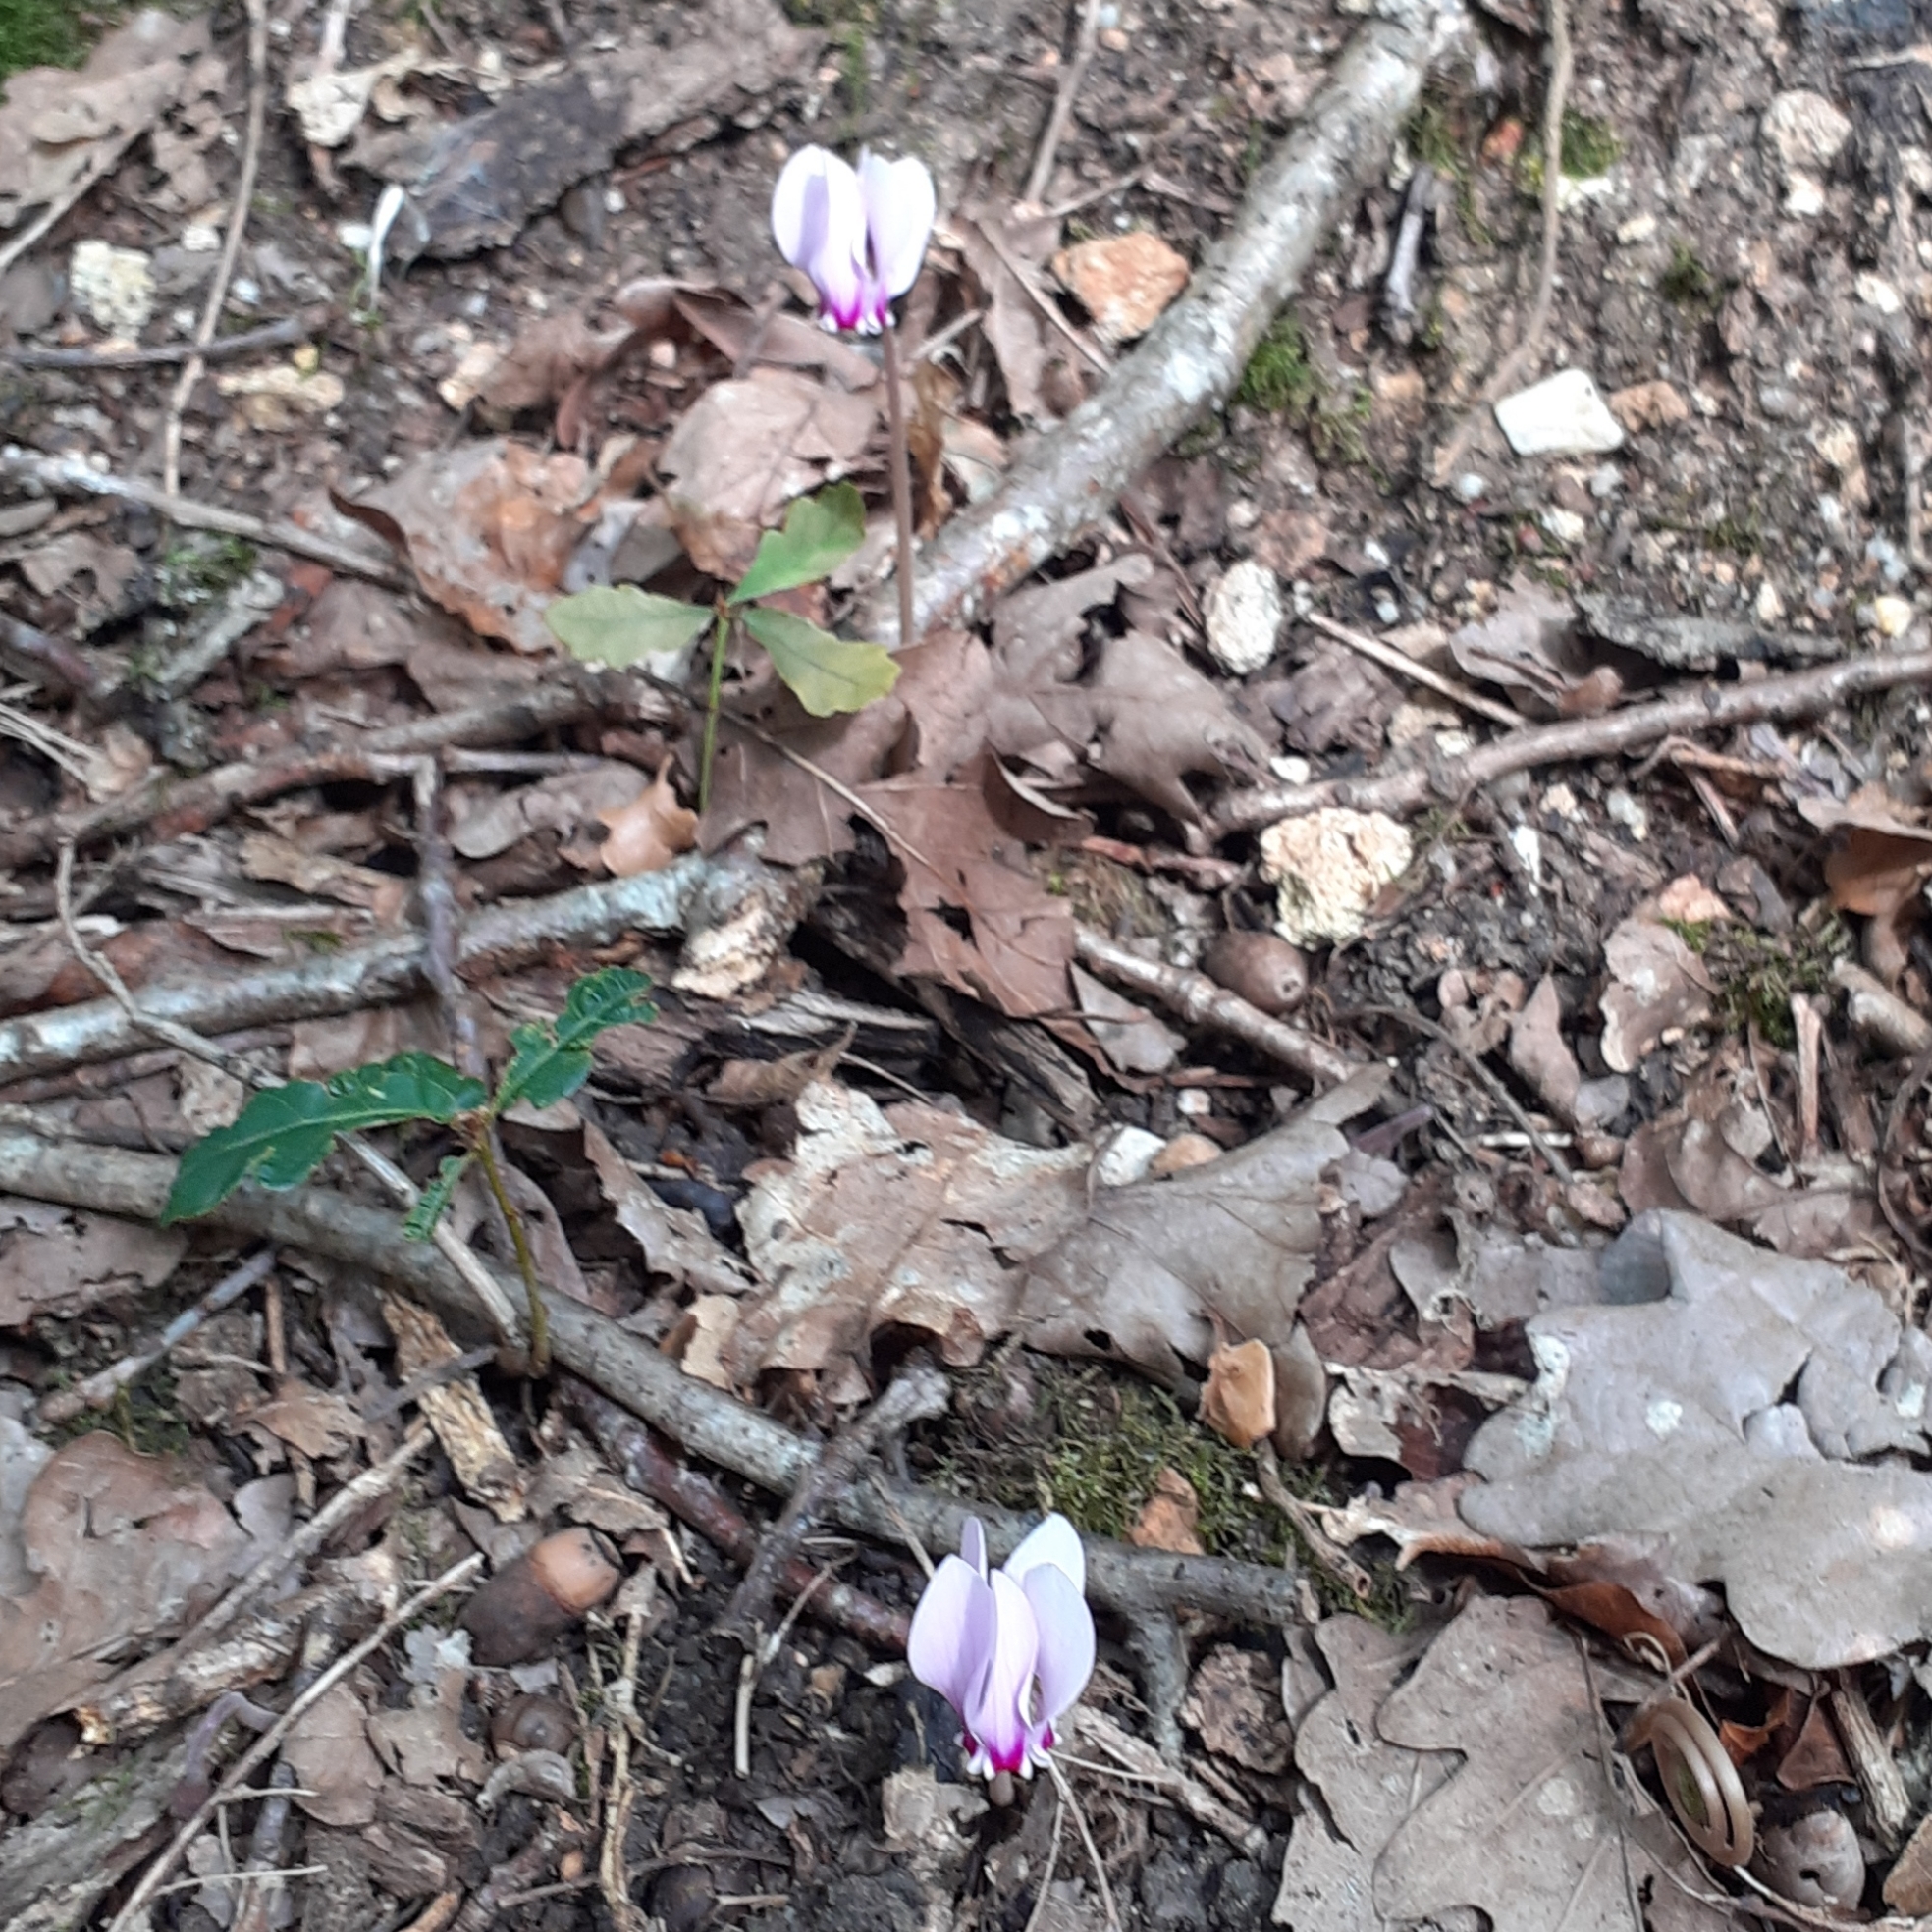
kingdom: Plantae
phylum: Tracheophyta
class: Magnoliopsida
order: Ericales
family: Primulaceae
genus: Cyclamen
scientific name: Cyclamen hederifolium
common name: Sowbread
